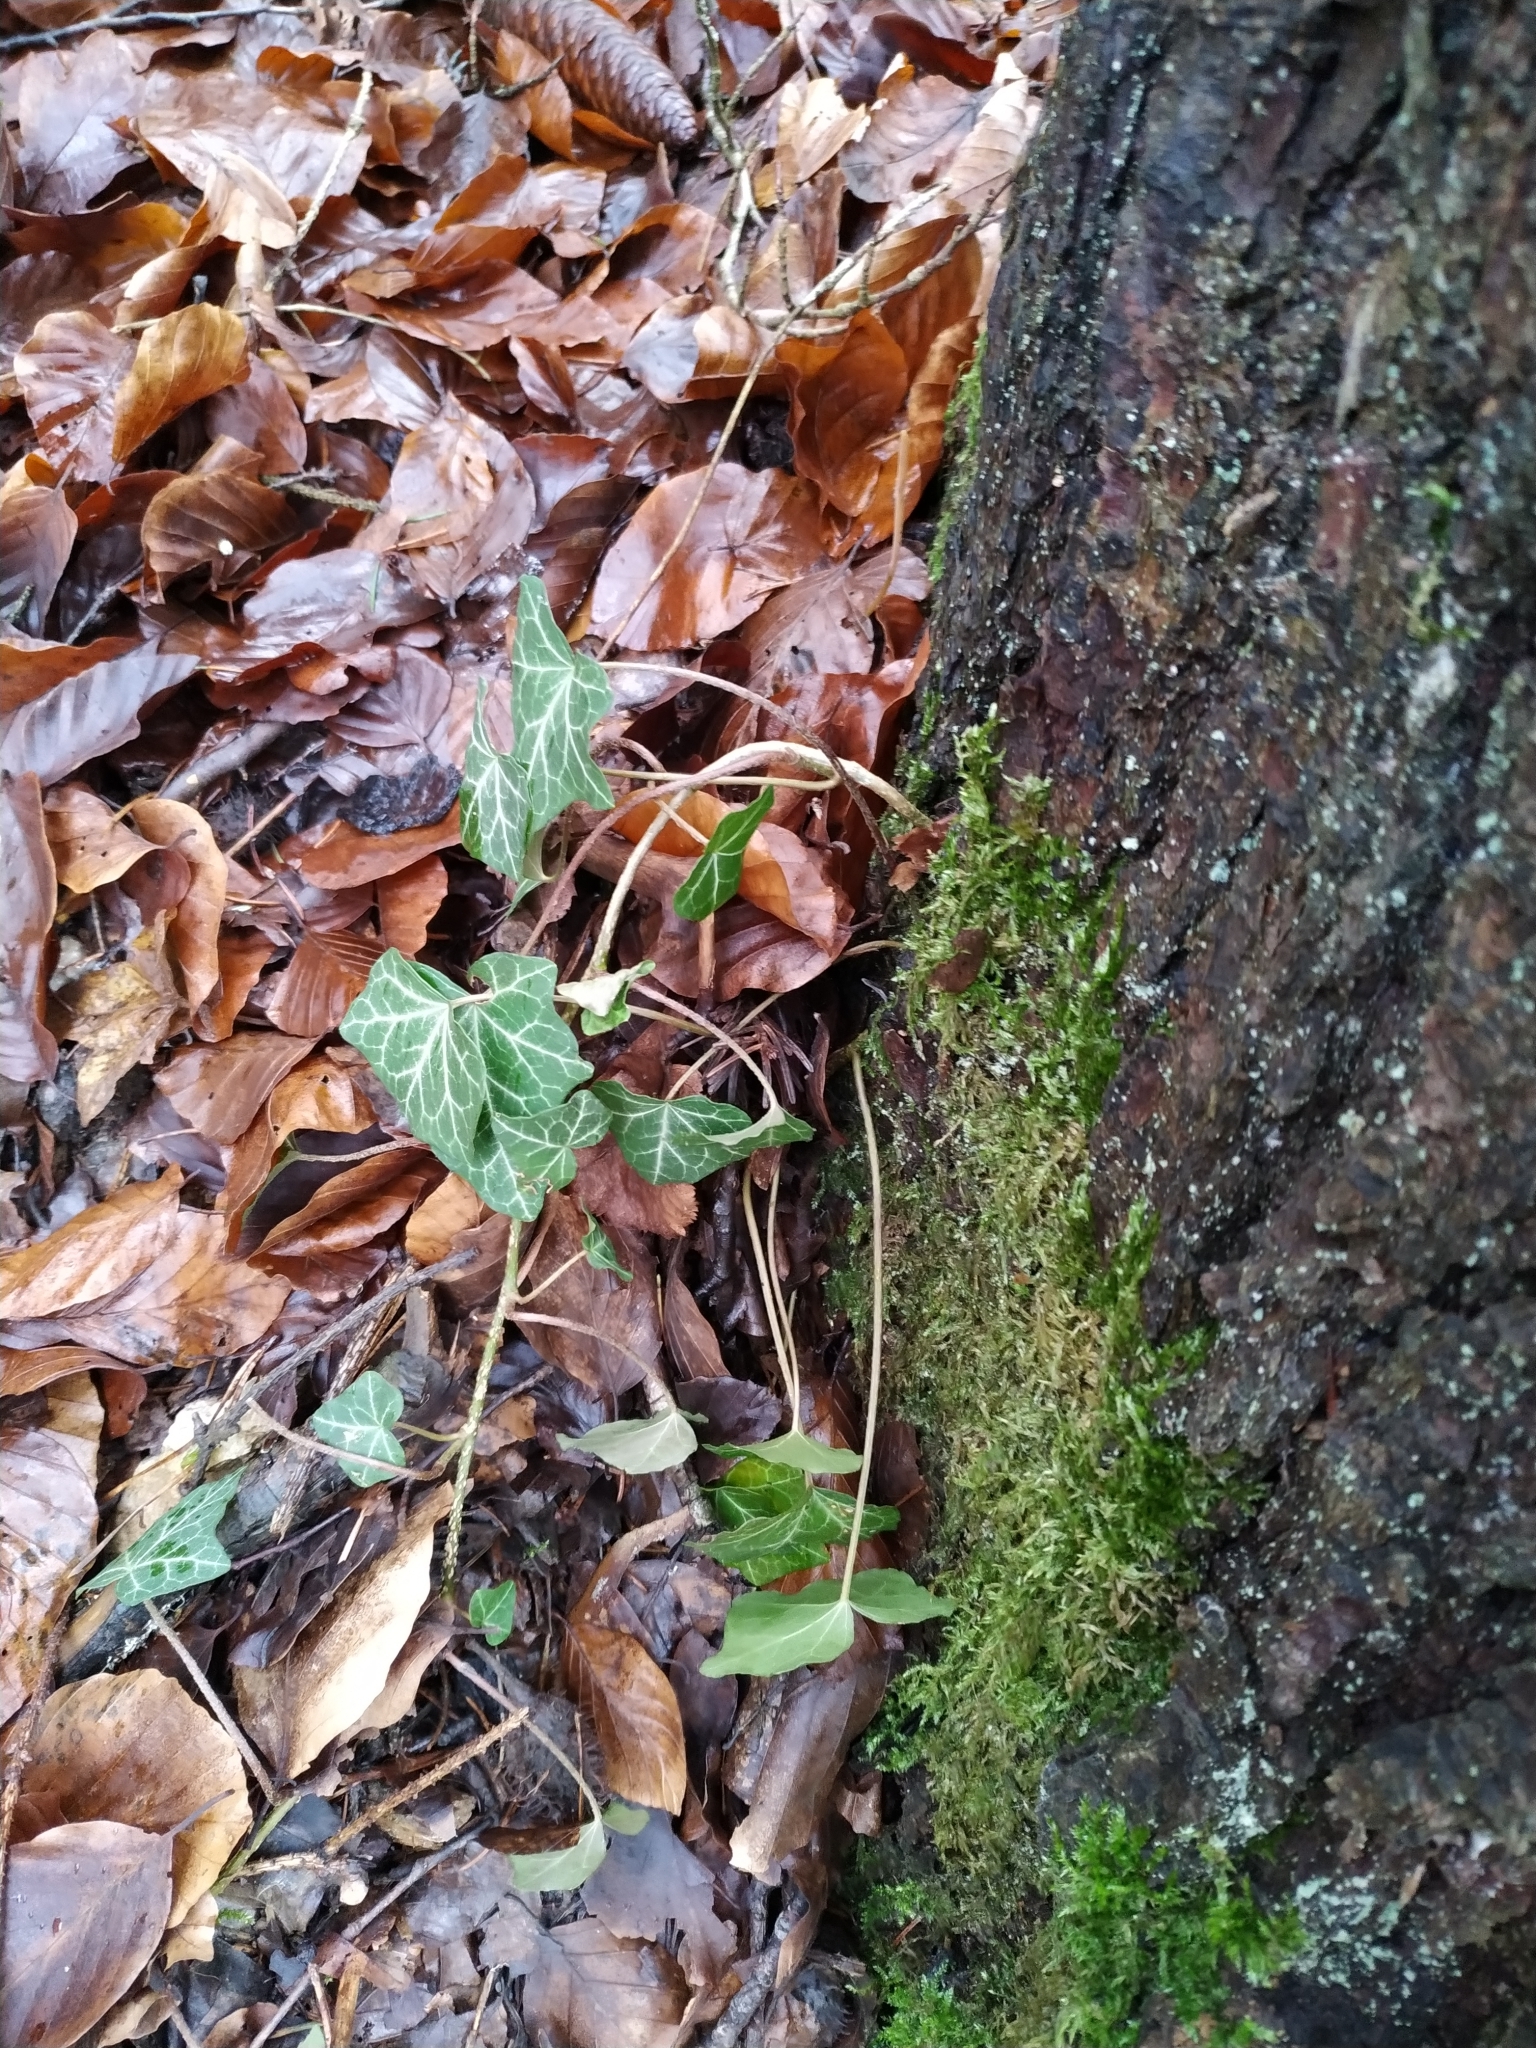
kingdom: Plantae
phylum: Tracheophyta
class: Magnoliopsida
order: Apiales
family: Araliaceae
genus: Hedera
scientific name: Hedera helix
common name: Ivy
